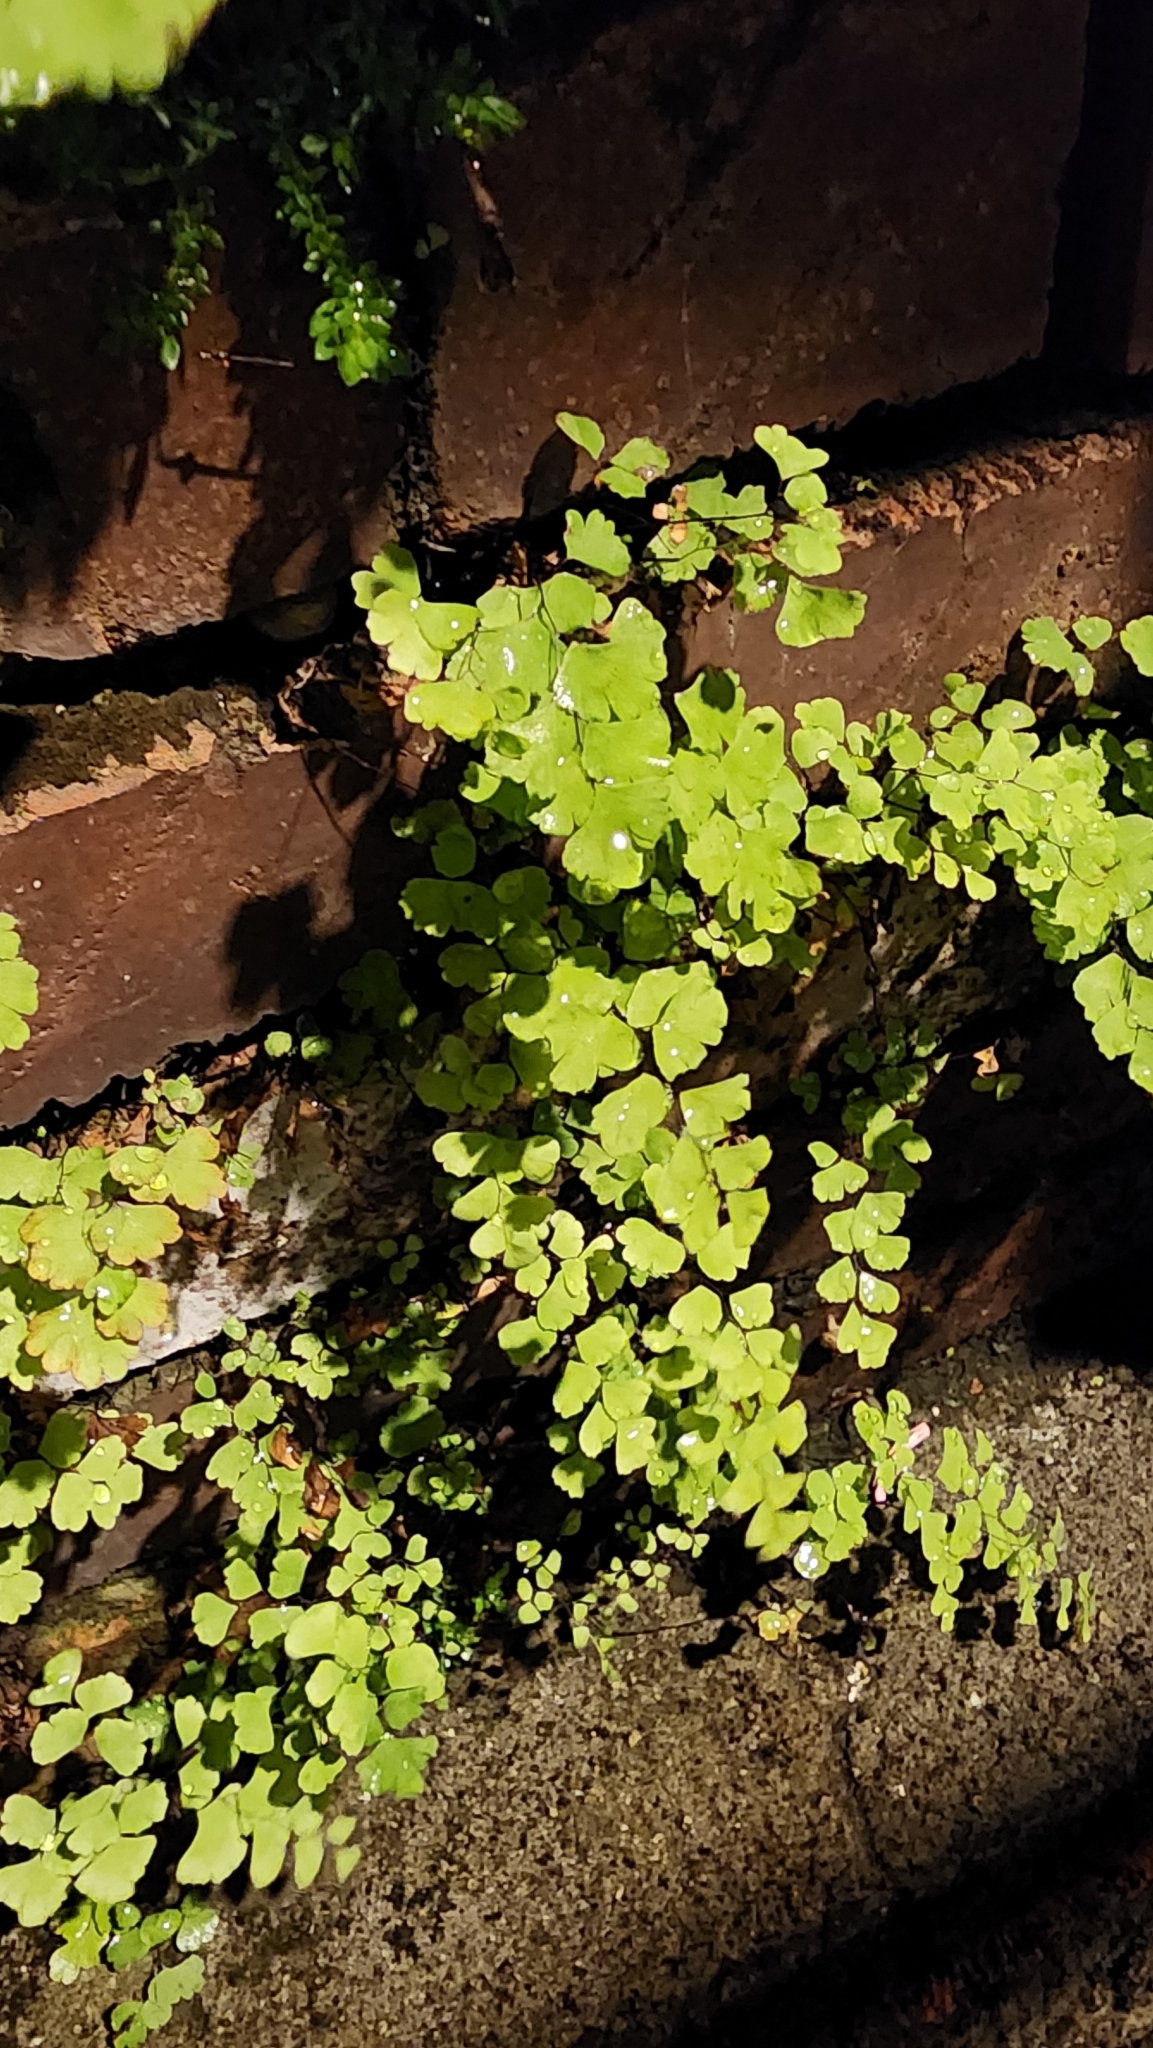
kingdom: Plantae
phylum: Tracheophyta
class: Polypodiopsida
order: Polypodiales
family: Pteridaceae
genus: Adiantum
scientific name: Adiantum capillus-veneris
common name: Maidenhair fern
